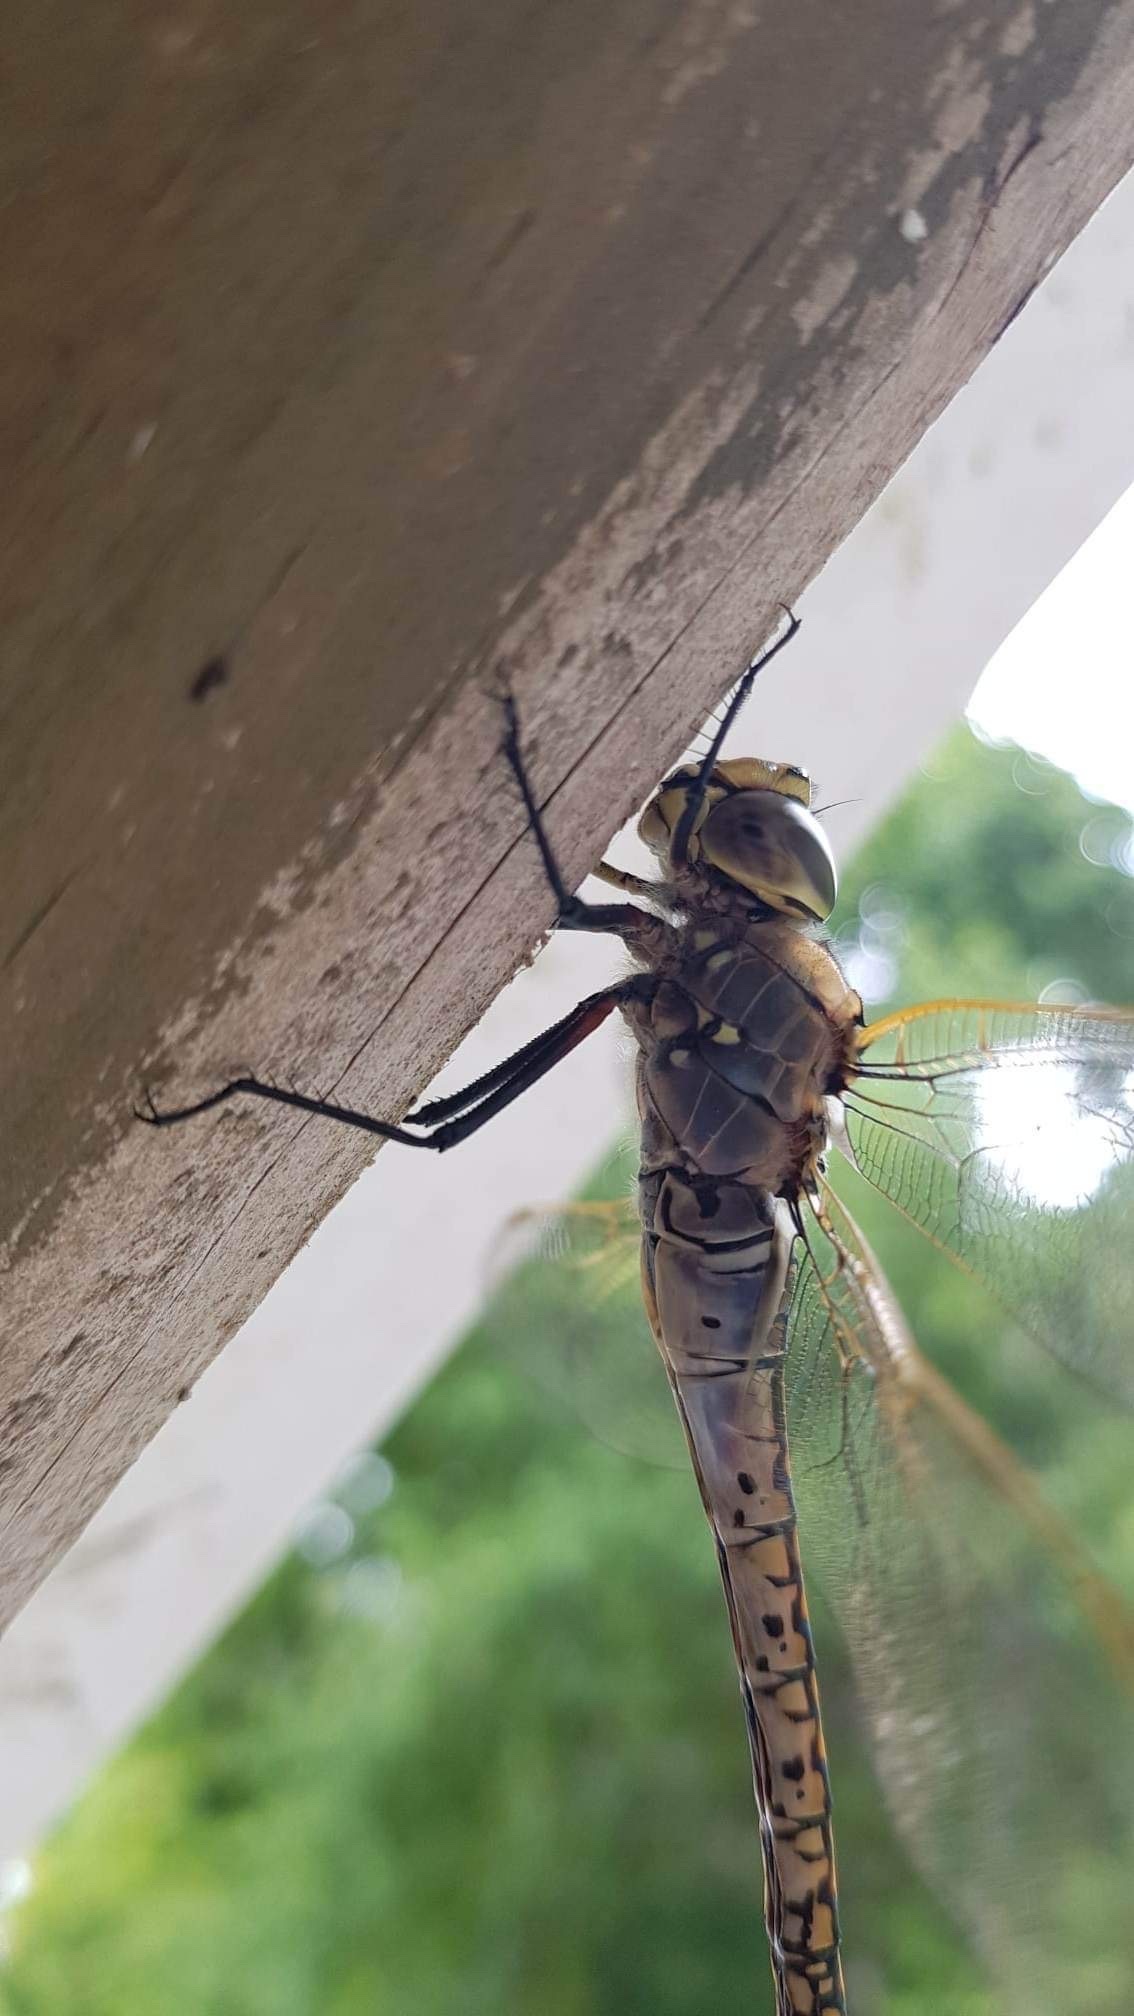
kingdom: Animalia
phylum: Arthropoda
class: Insecta
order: Odonata
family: Aeshnidae
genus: Anax
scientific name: Anax papuensis
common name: Australian emperor
